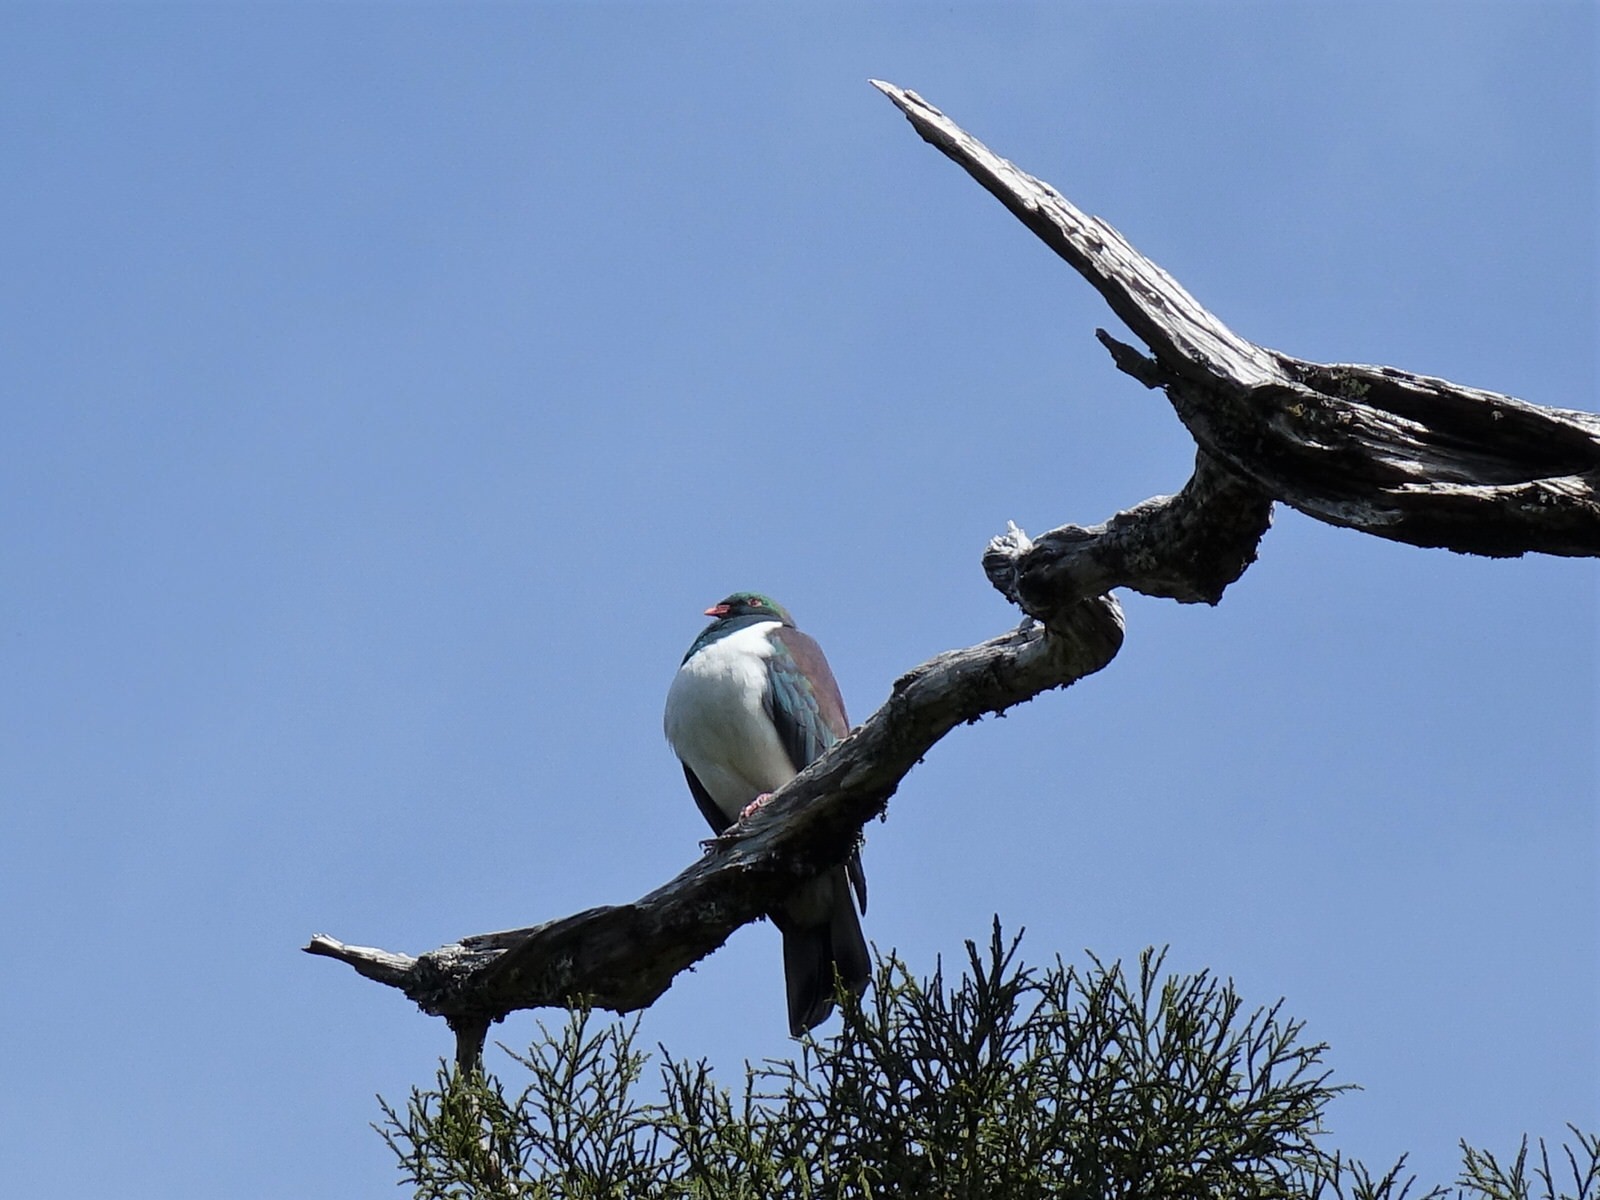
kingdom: Animalia
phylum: Chordata
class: Aves
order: Columbiformes
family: Columbidae
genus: Hemiphaga
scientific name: Hemiphaga novaeseelandiae
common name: New zealand pigeon
